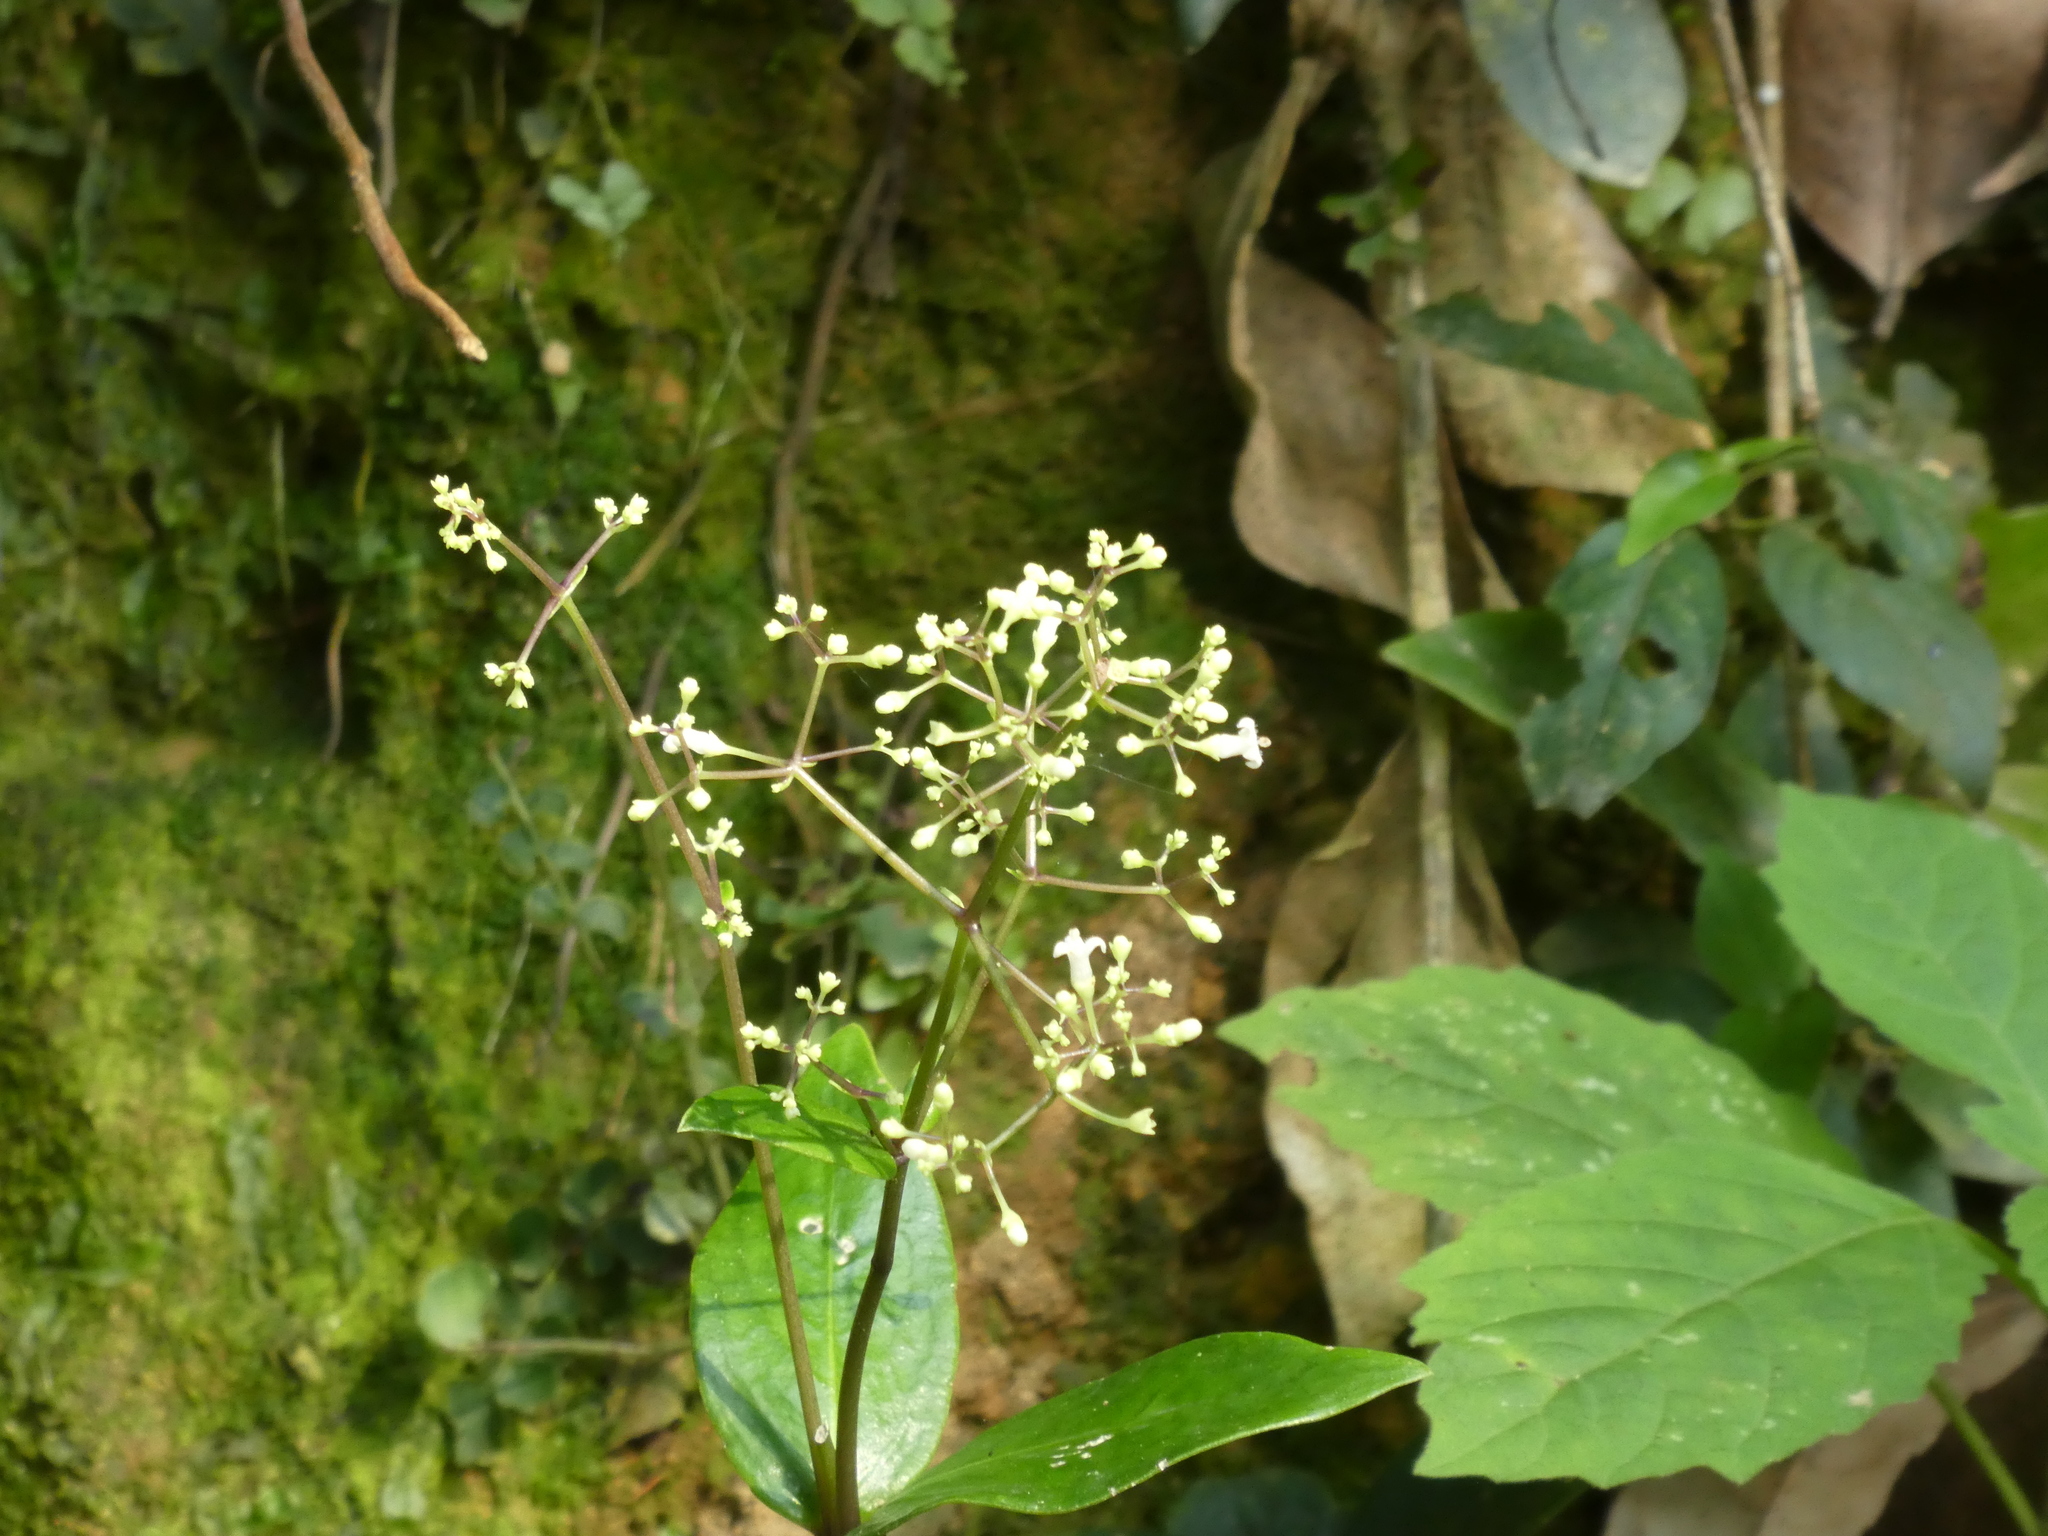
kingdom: Plantae
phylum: Tracheophyta
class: Magnoliopsida
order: Gentianales
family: Rubiaceae
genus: Hedyotis
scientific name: Hedyotis effusa
